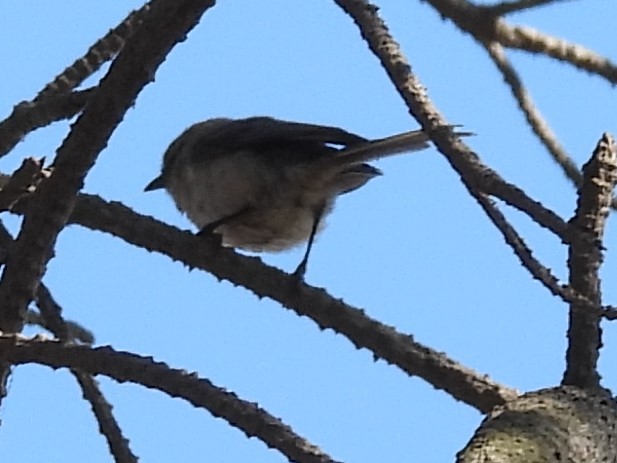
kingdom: Animalia
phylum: Chordata
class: Aves
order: Passeriformes
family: Aegithalidae
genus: Psaltriparus
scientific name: Psaltriparus minimus
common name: American bushtit
